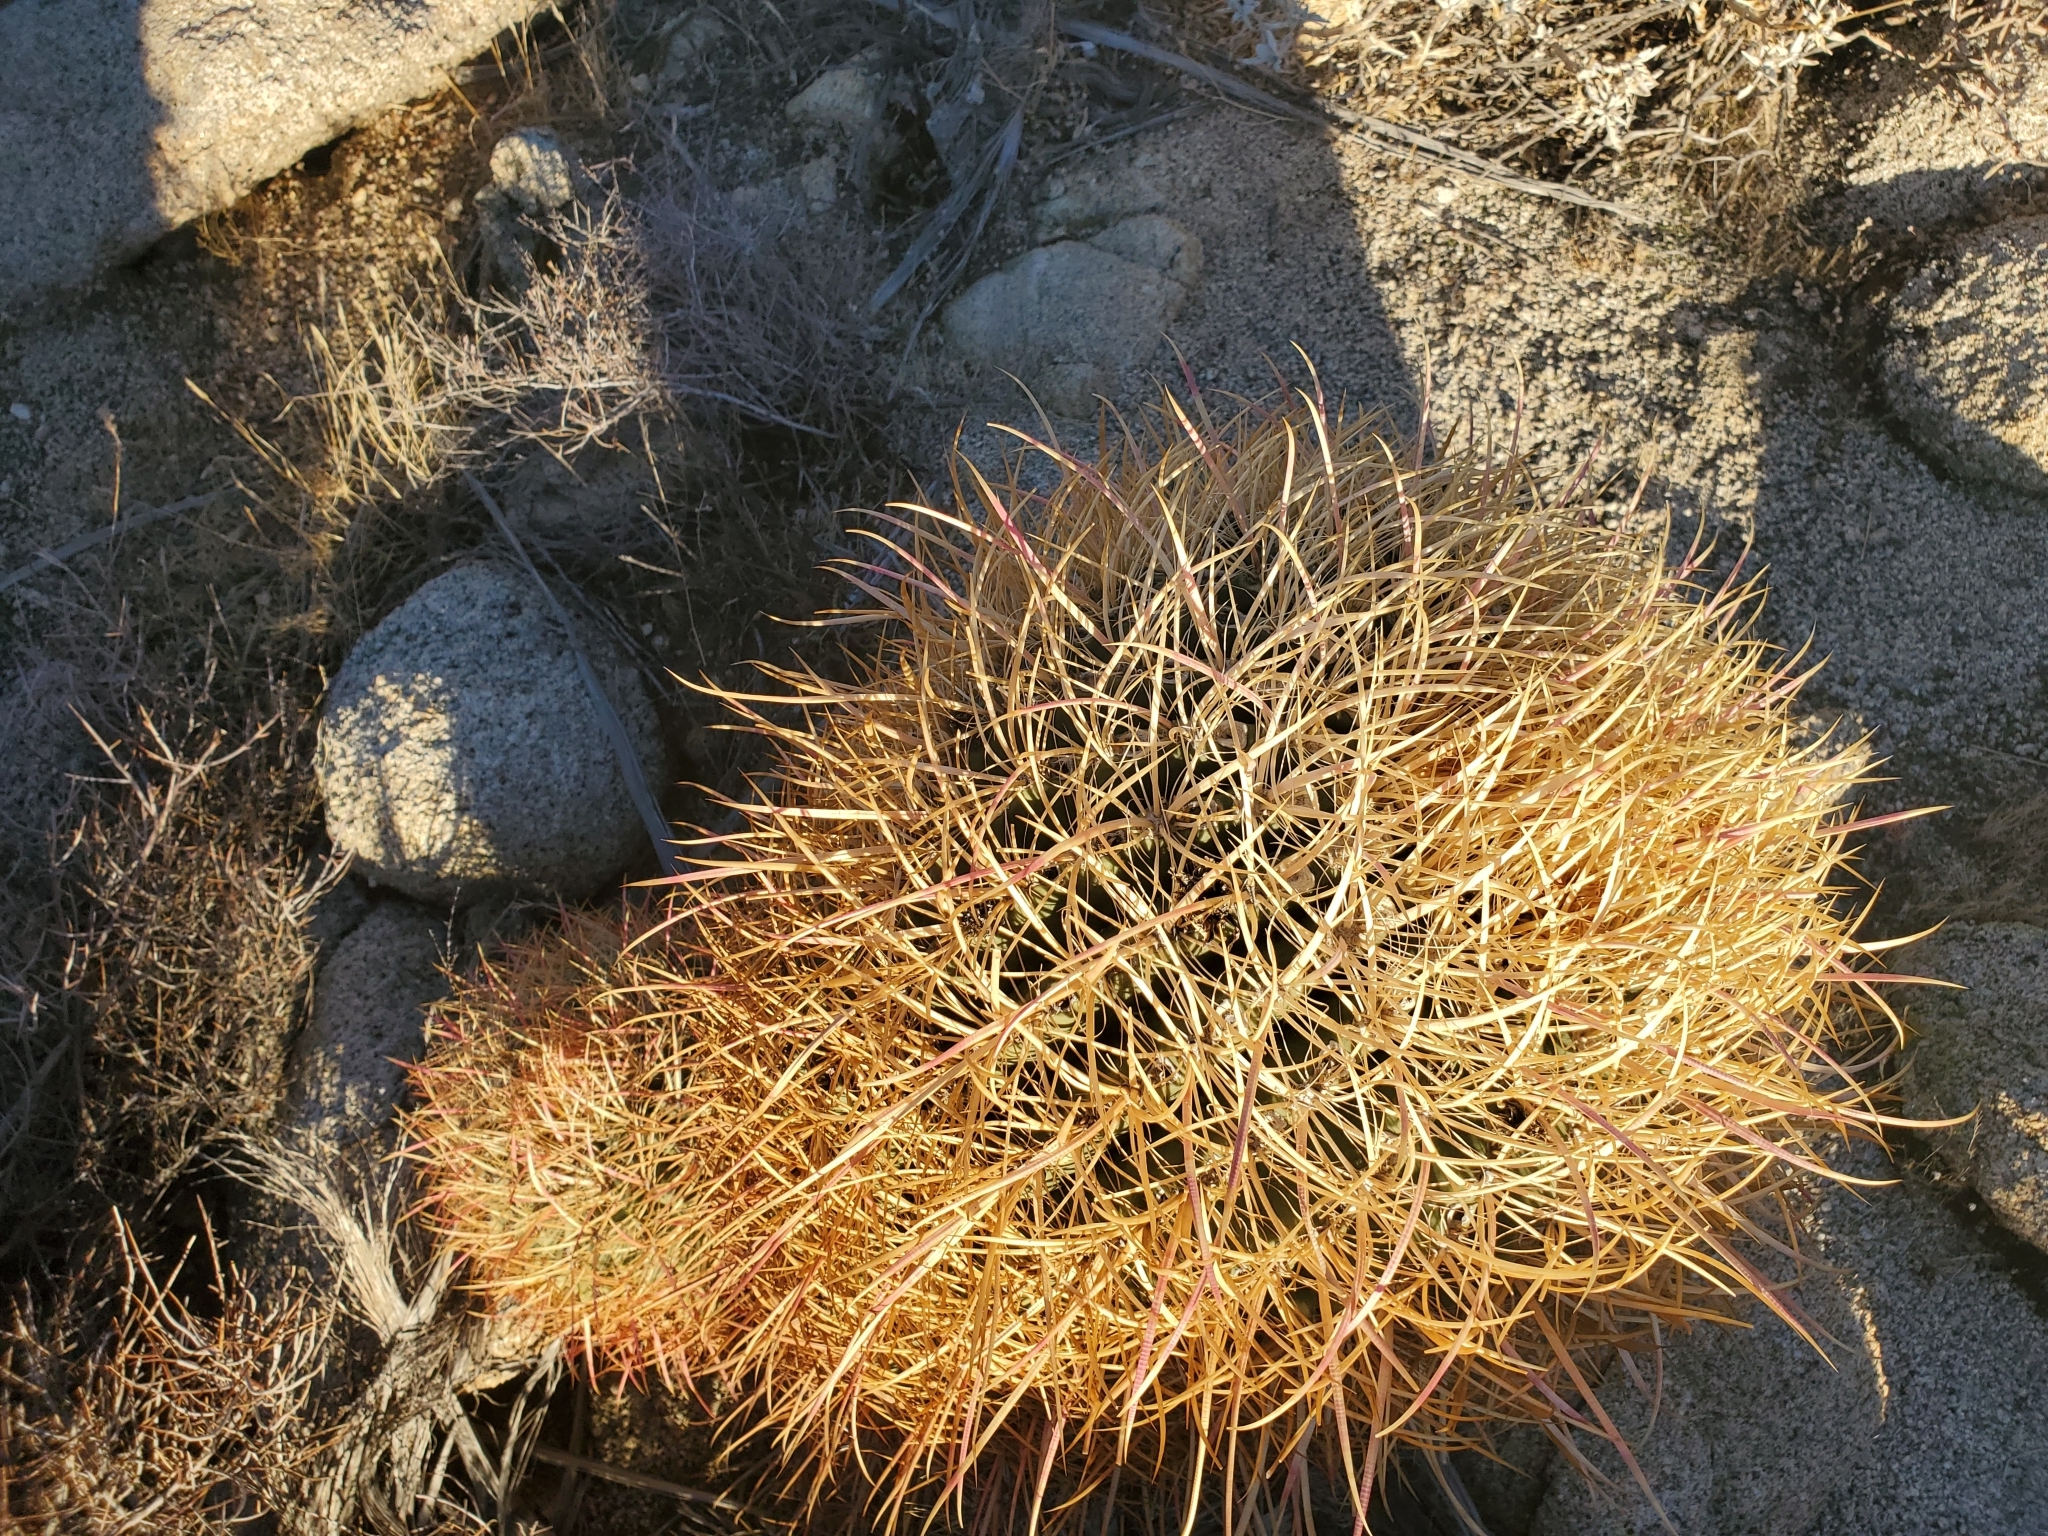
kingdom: Plantae
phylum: Tracheophyta
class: Magnoliopsida
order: Caryophyllales
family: Cactaceae
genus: Ferocactus
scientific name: Ferocactus cylindraceus
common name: California barrel cactus
